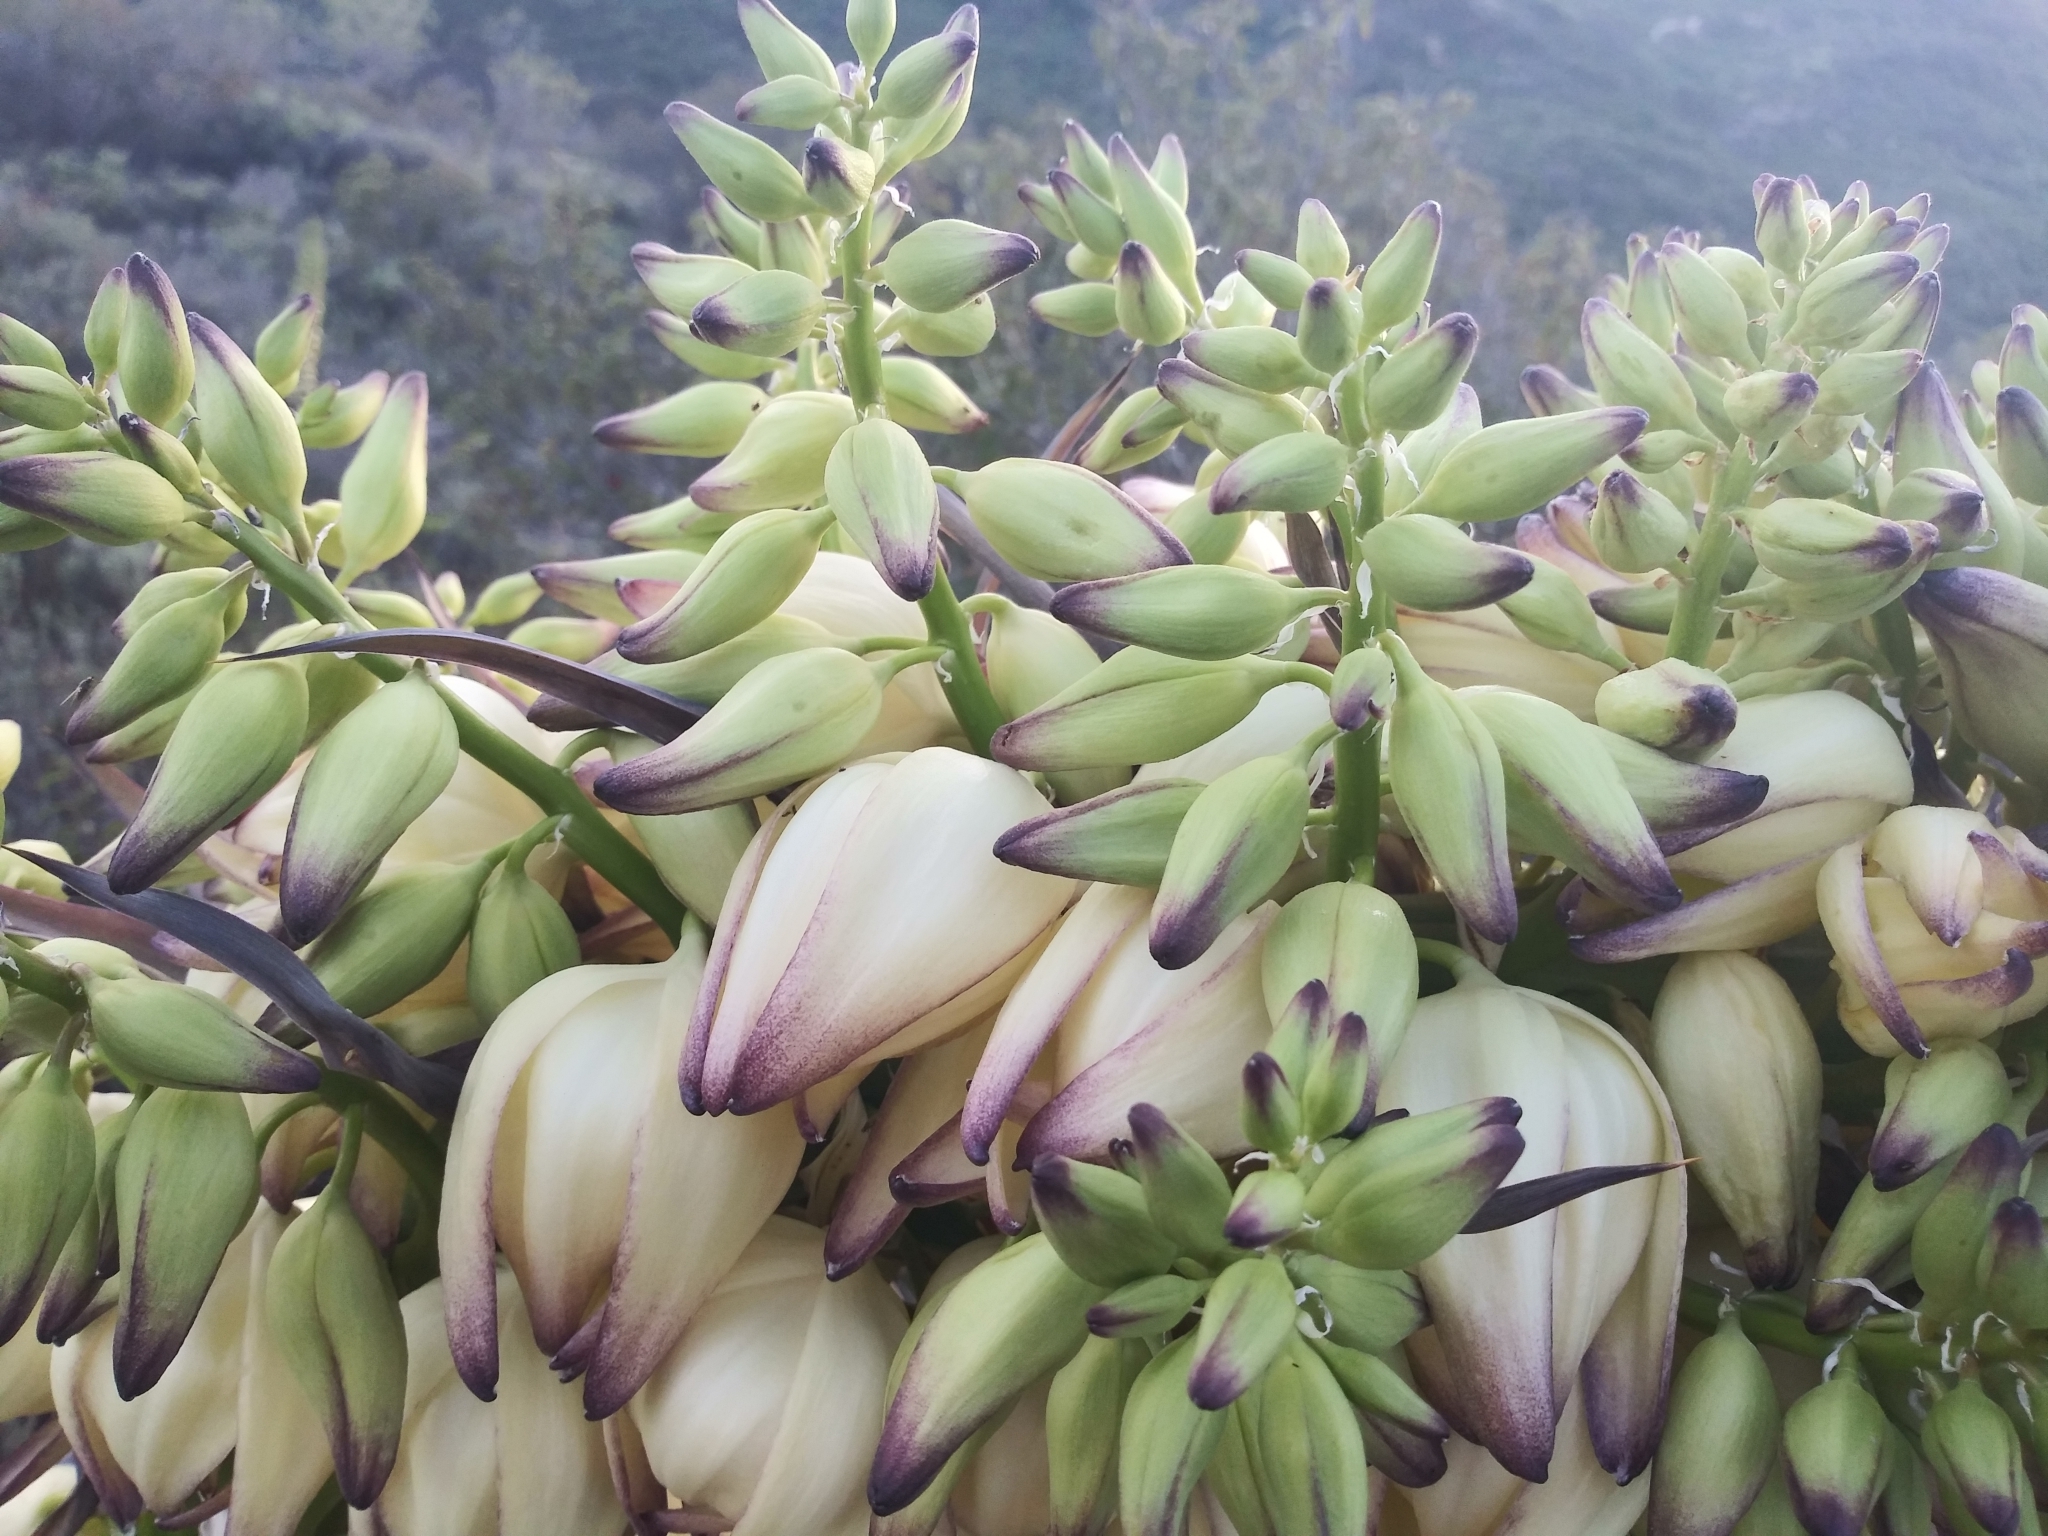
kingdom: Plantae
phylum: Tracheophyta
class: Liliopsida
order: Asparagales
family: Asparagaceae
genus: Hesperoyucca
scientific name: Hesperoyucca whipplei
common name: Our lord's-candle
